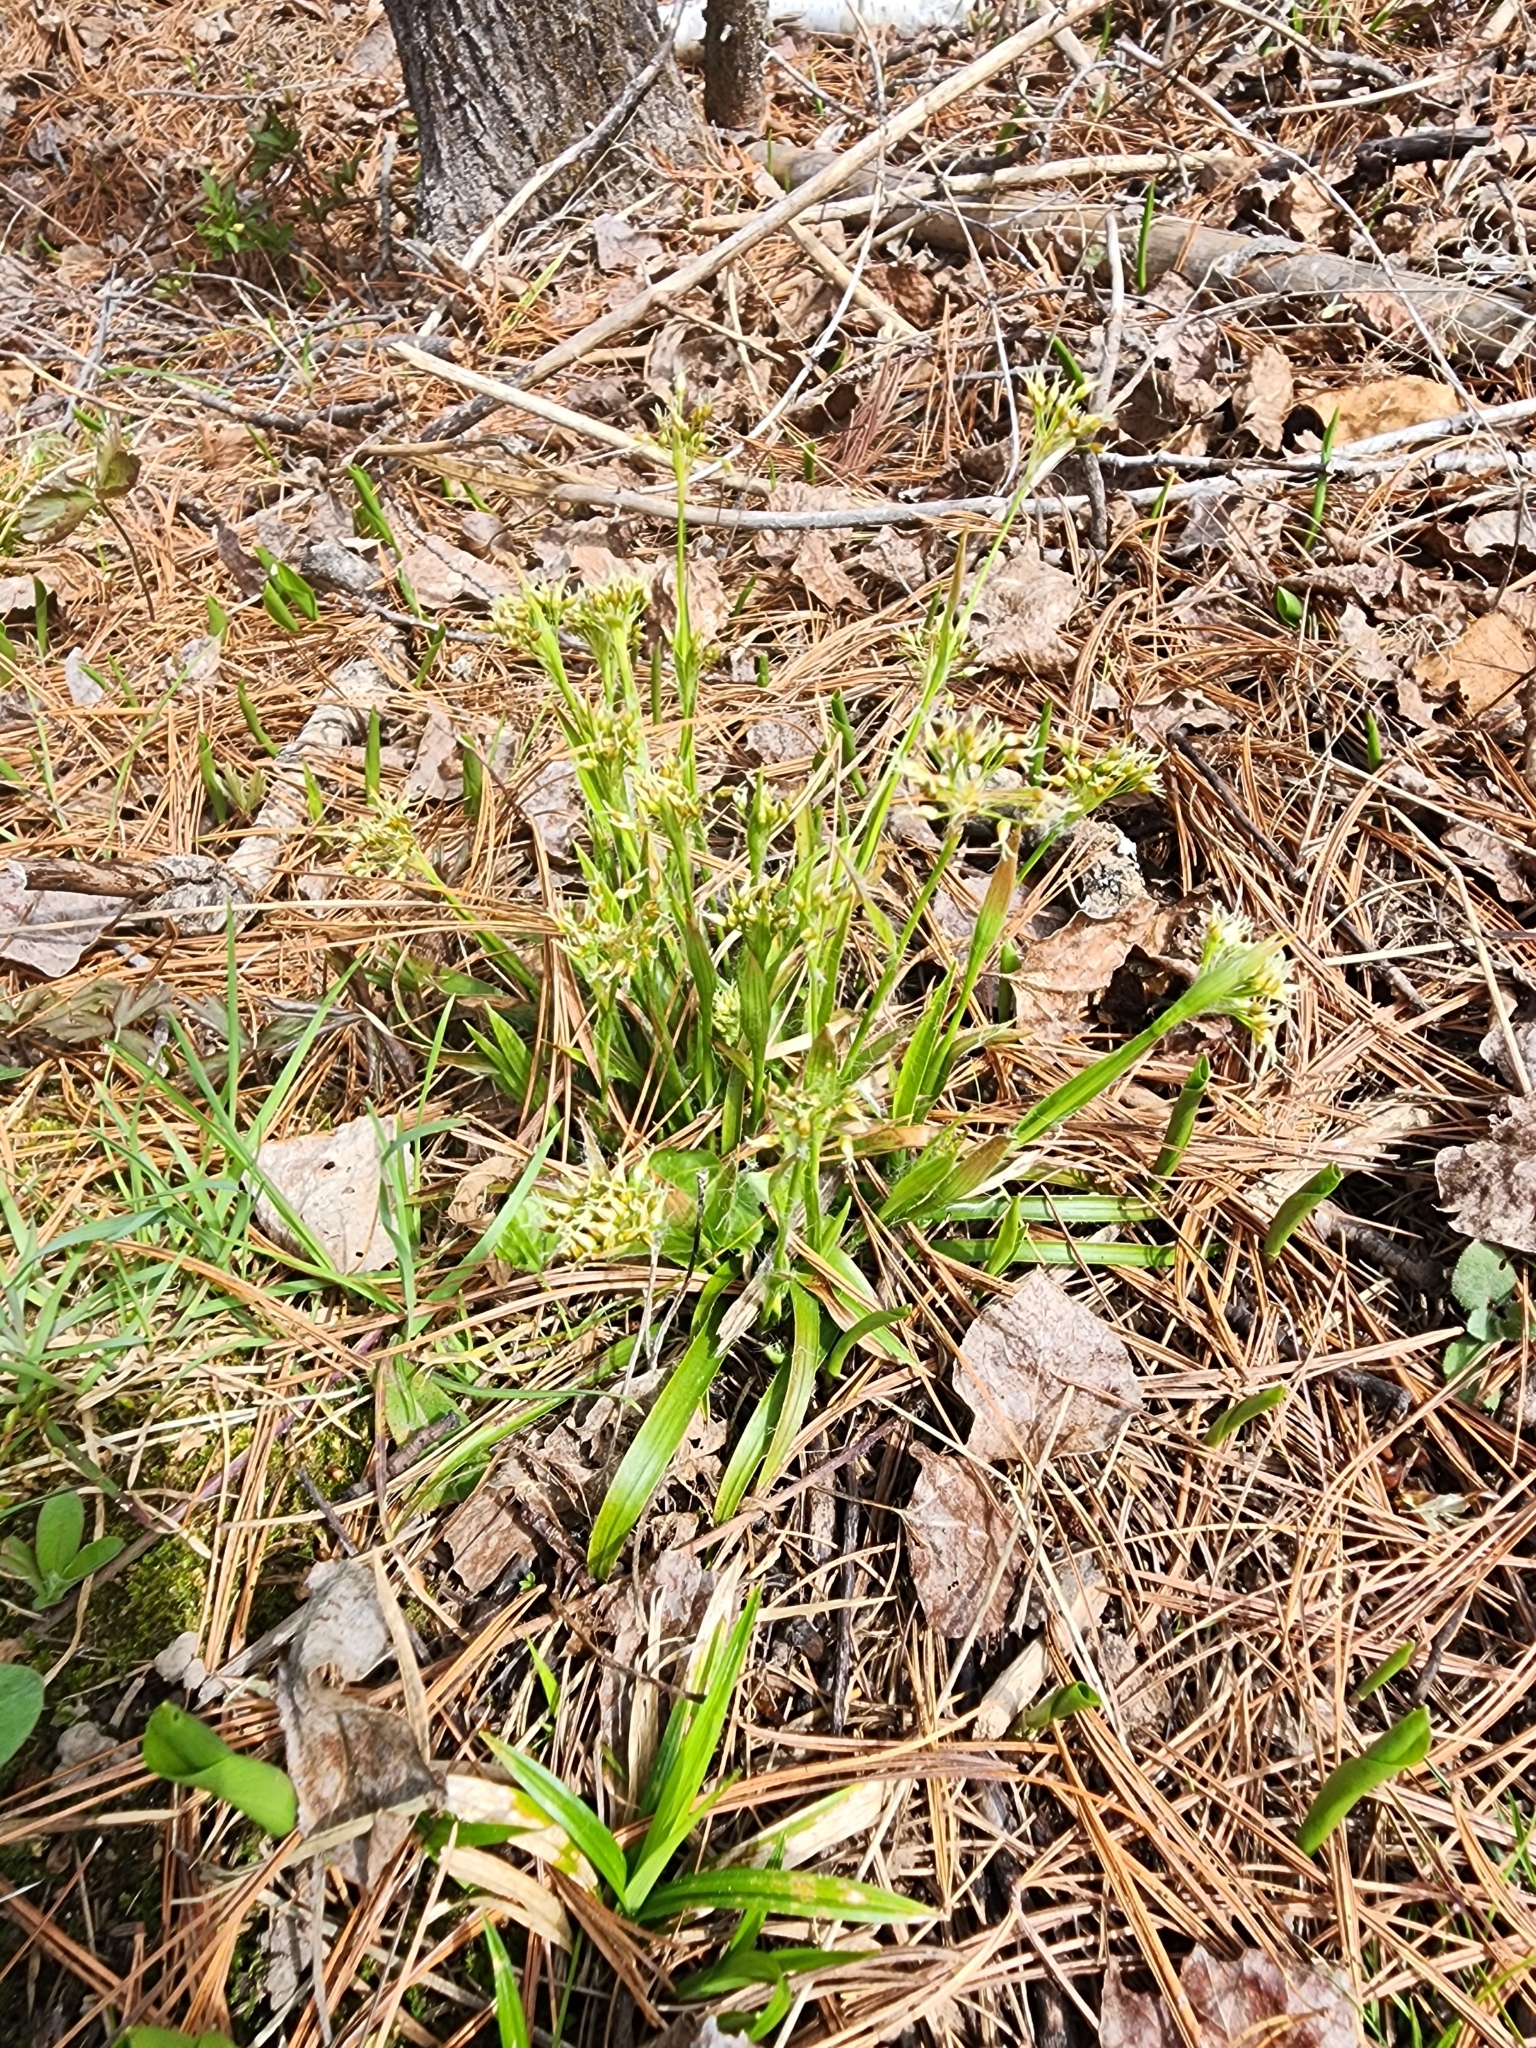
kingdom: Plantae
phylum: Tracheophyta
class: Liliopsida
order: Poales
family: Juncaceae
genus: Luzula
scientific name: Luzula acuminata
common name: Hairy woodrush
